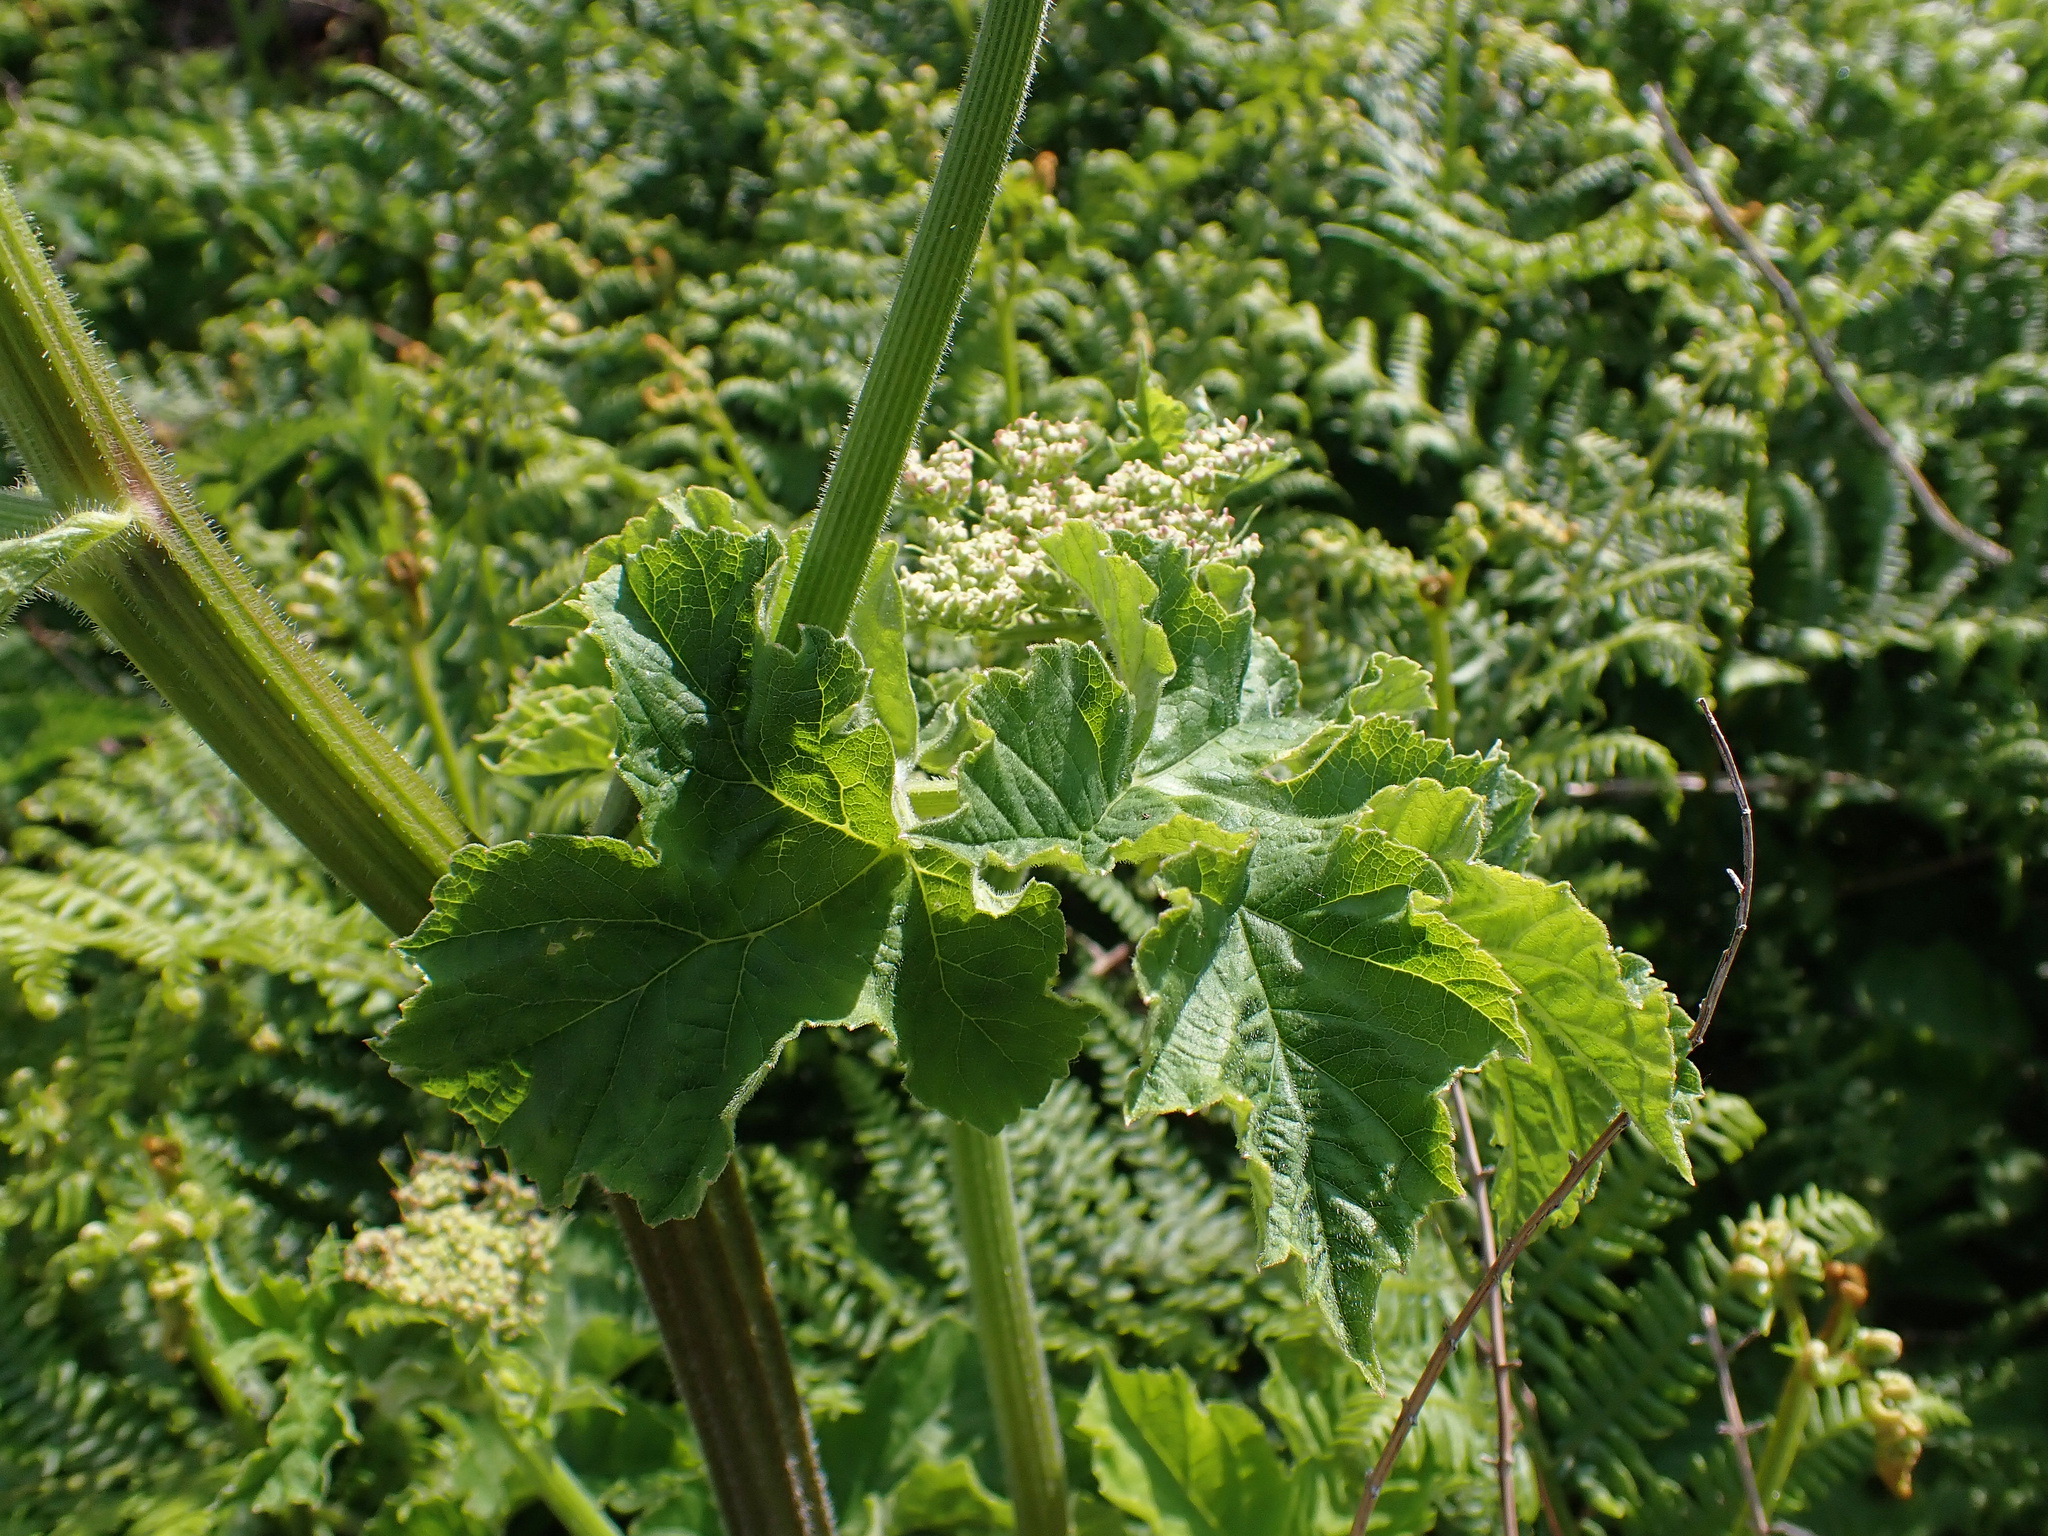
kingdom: Plantae
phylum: Tracheophyta
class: Magnoliopsida
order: Apiales
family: Apiaceae
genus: Heracleum
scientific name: Heracleum sphondylium
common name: Hogweed
